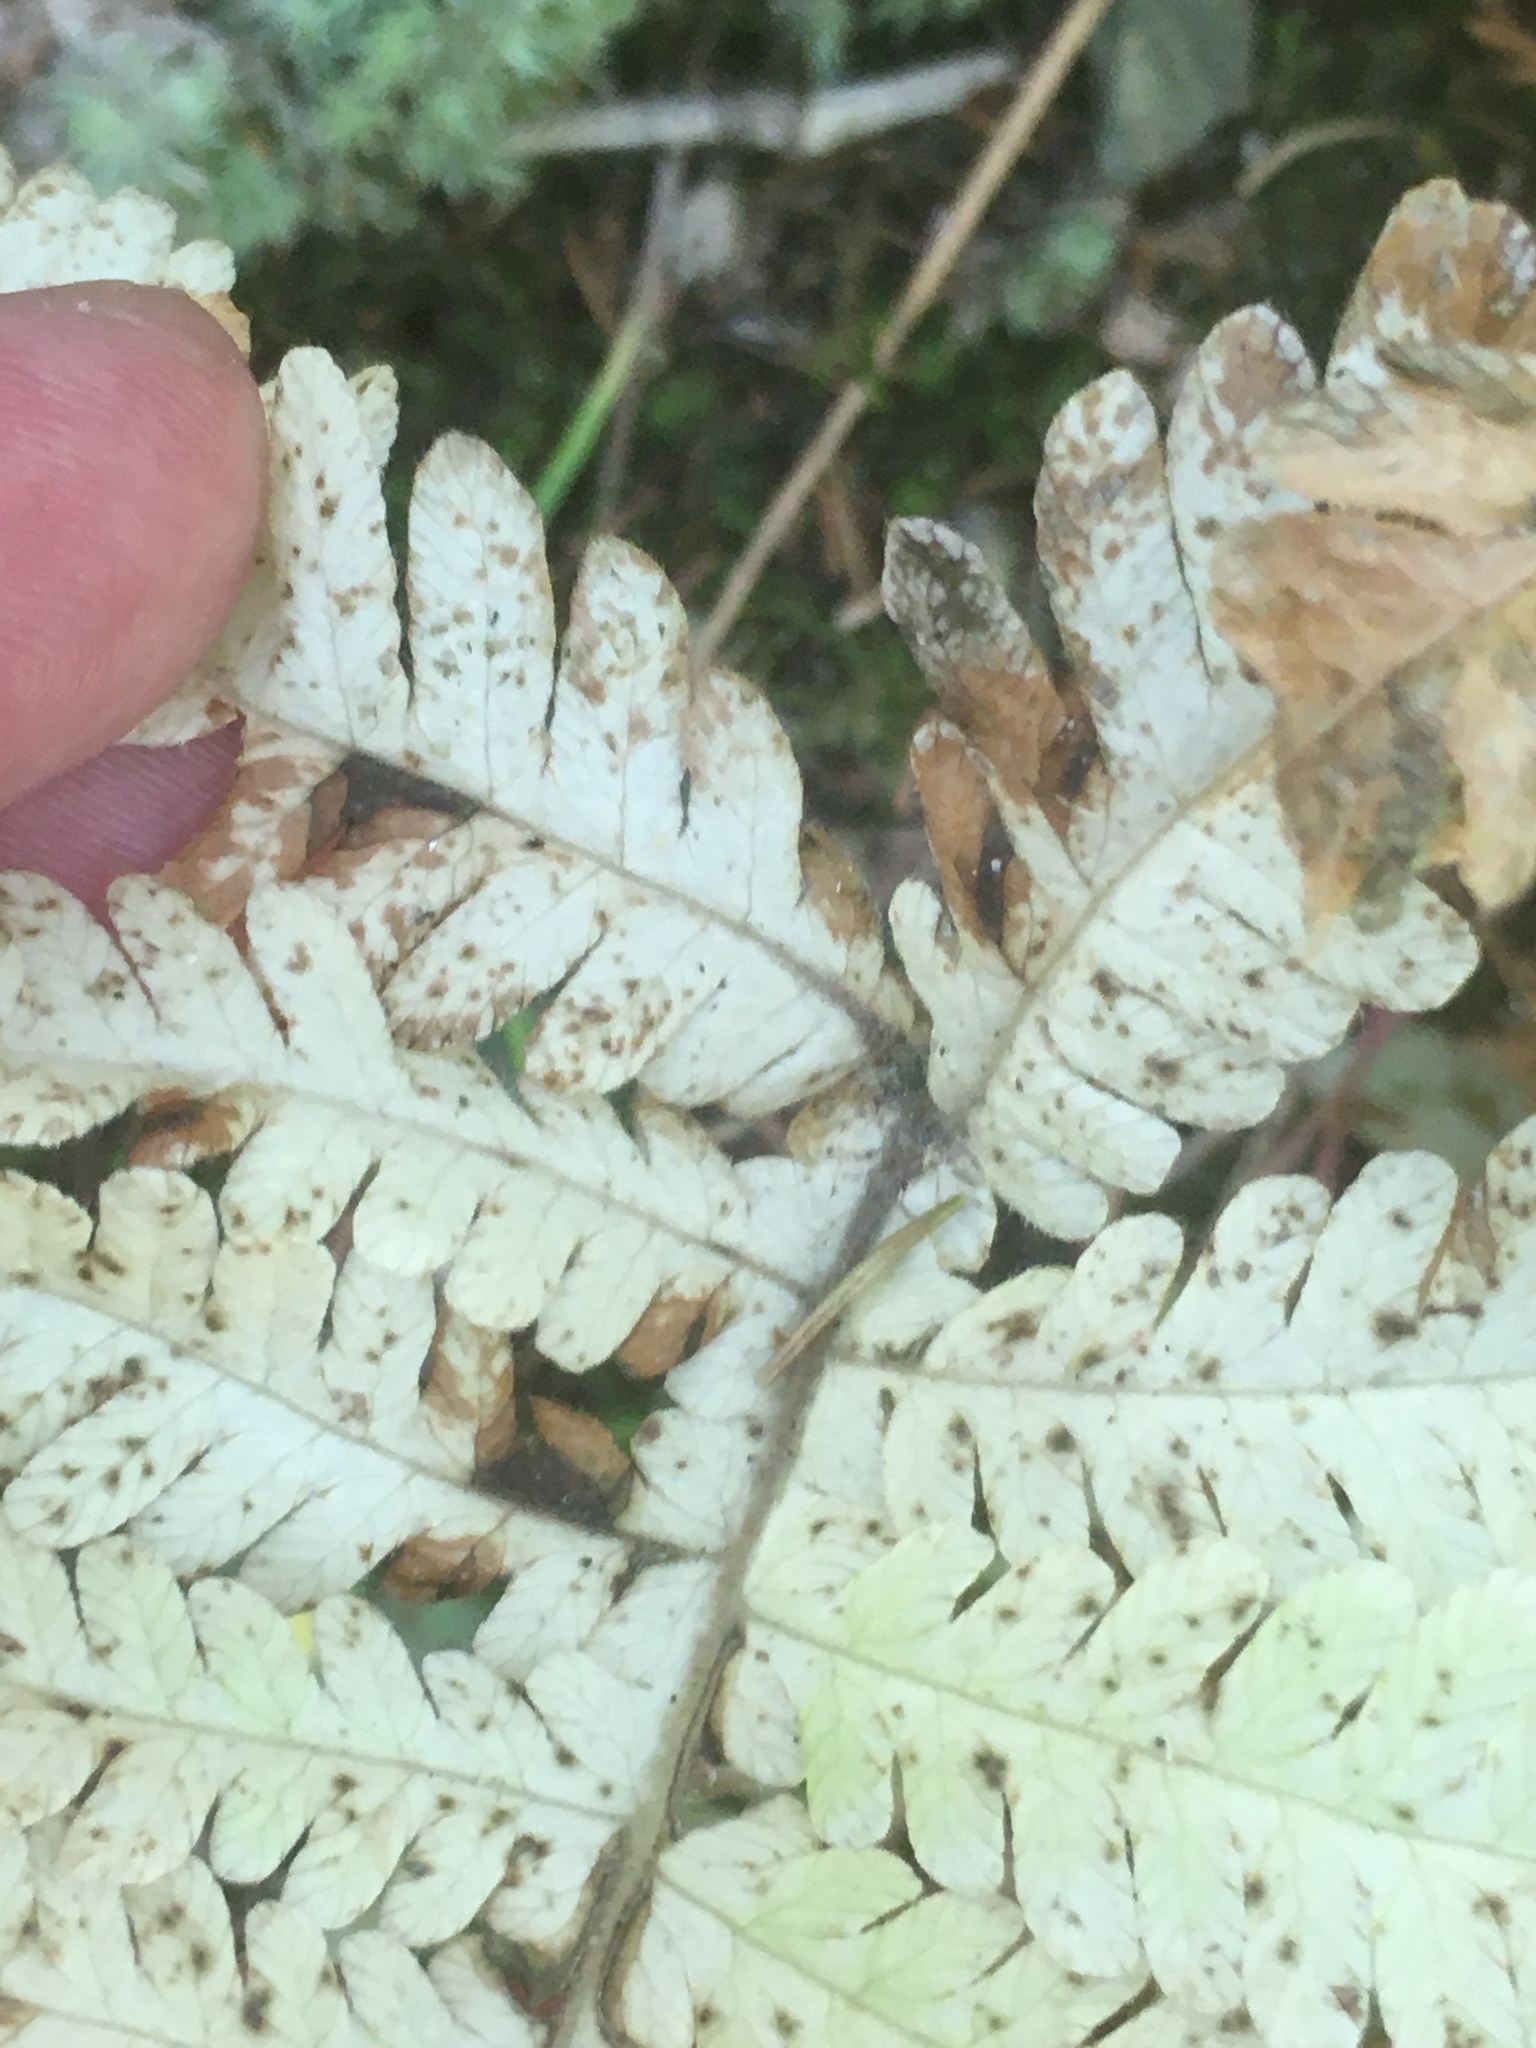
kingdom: Plantae
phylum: Tracheophyta
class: Polypodiopsida
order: Polypodiales
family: Thelypteridaceae
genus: Phegopteris
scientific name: Phegopteris connectilis
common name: Beech fern
